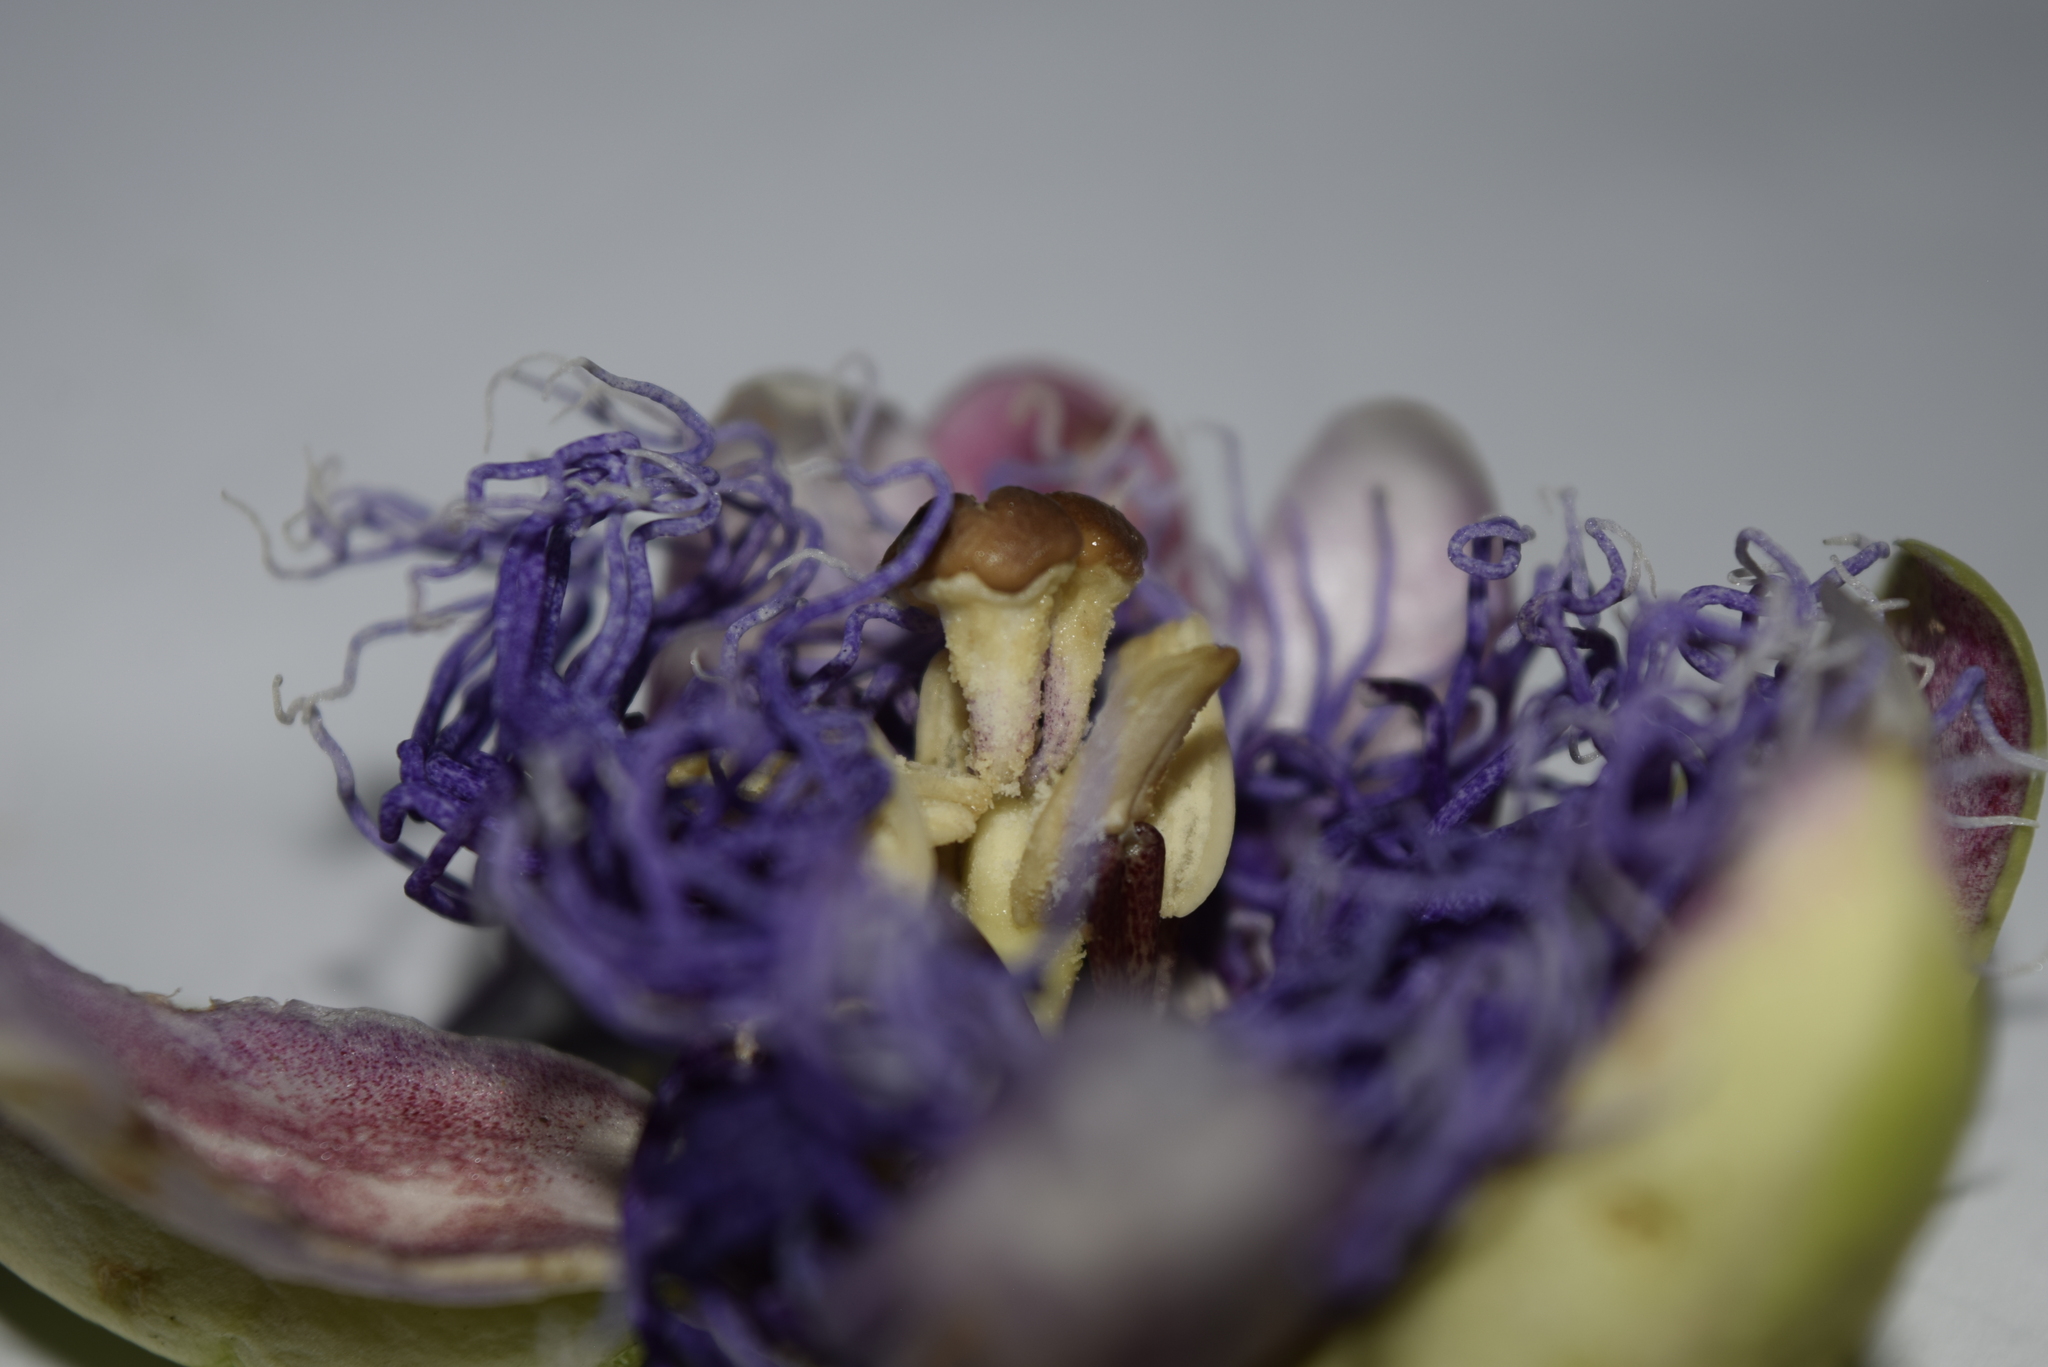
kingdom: Plantae
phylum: Tracheophyta
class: Magnoliopsida
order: Malpighiales
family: Passifloraceae
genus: Passiflora
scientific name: Passiflora quadrangularis
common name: Giant granadilla
